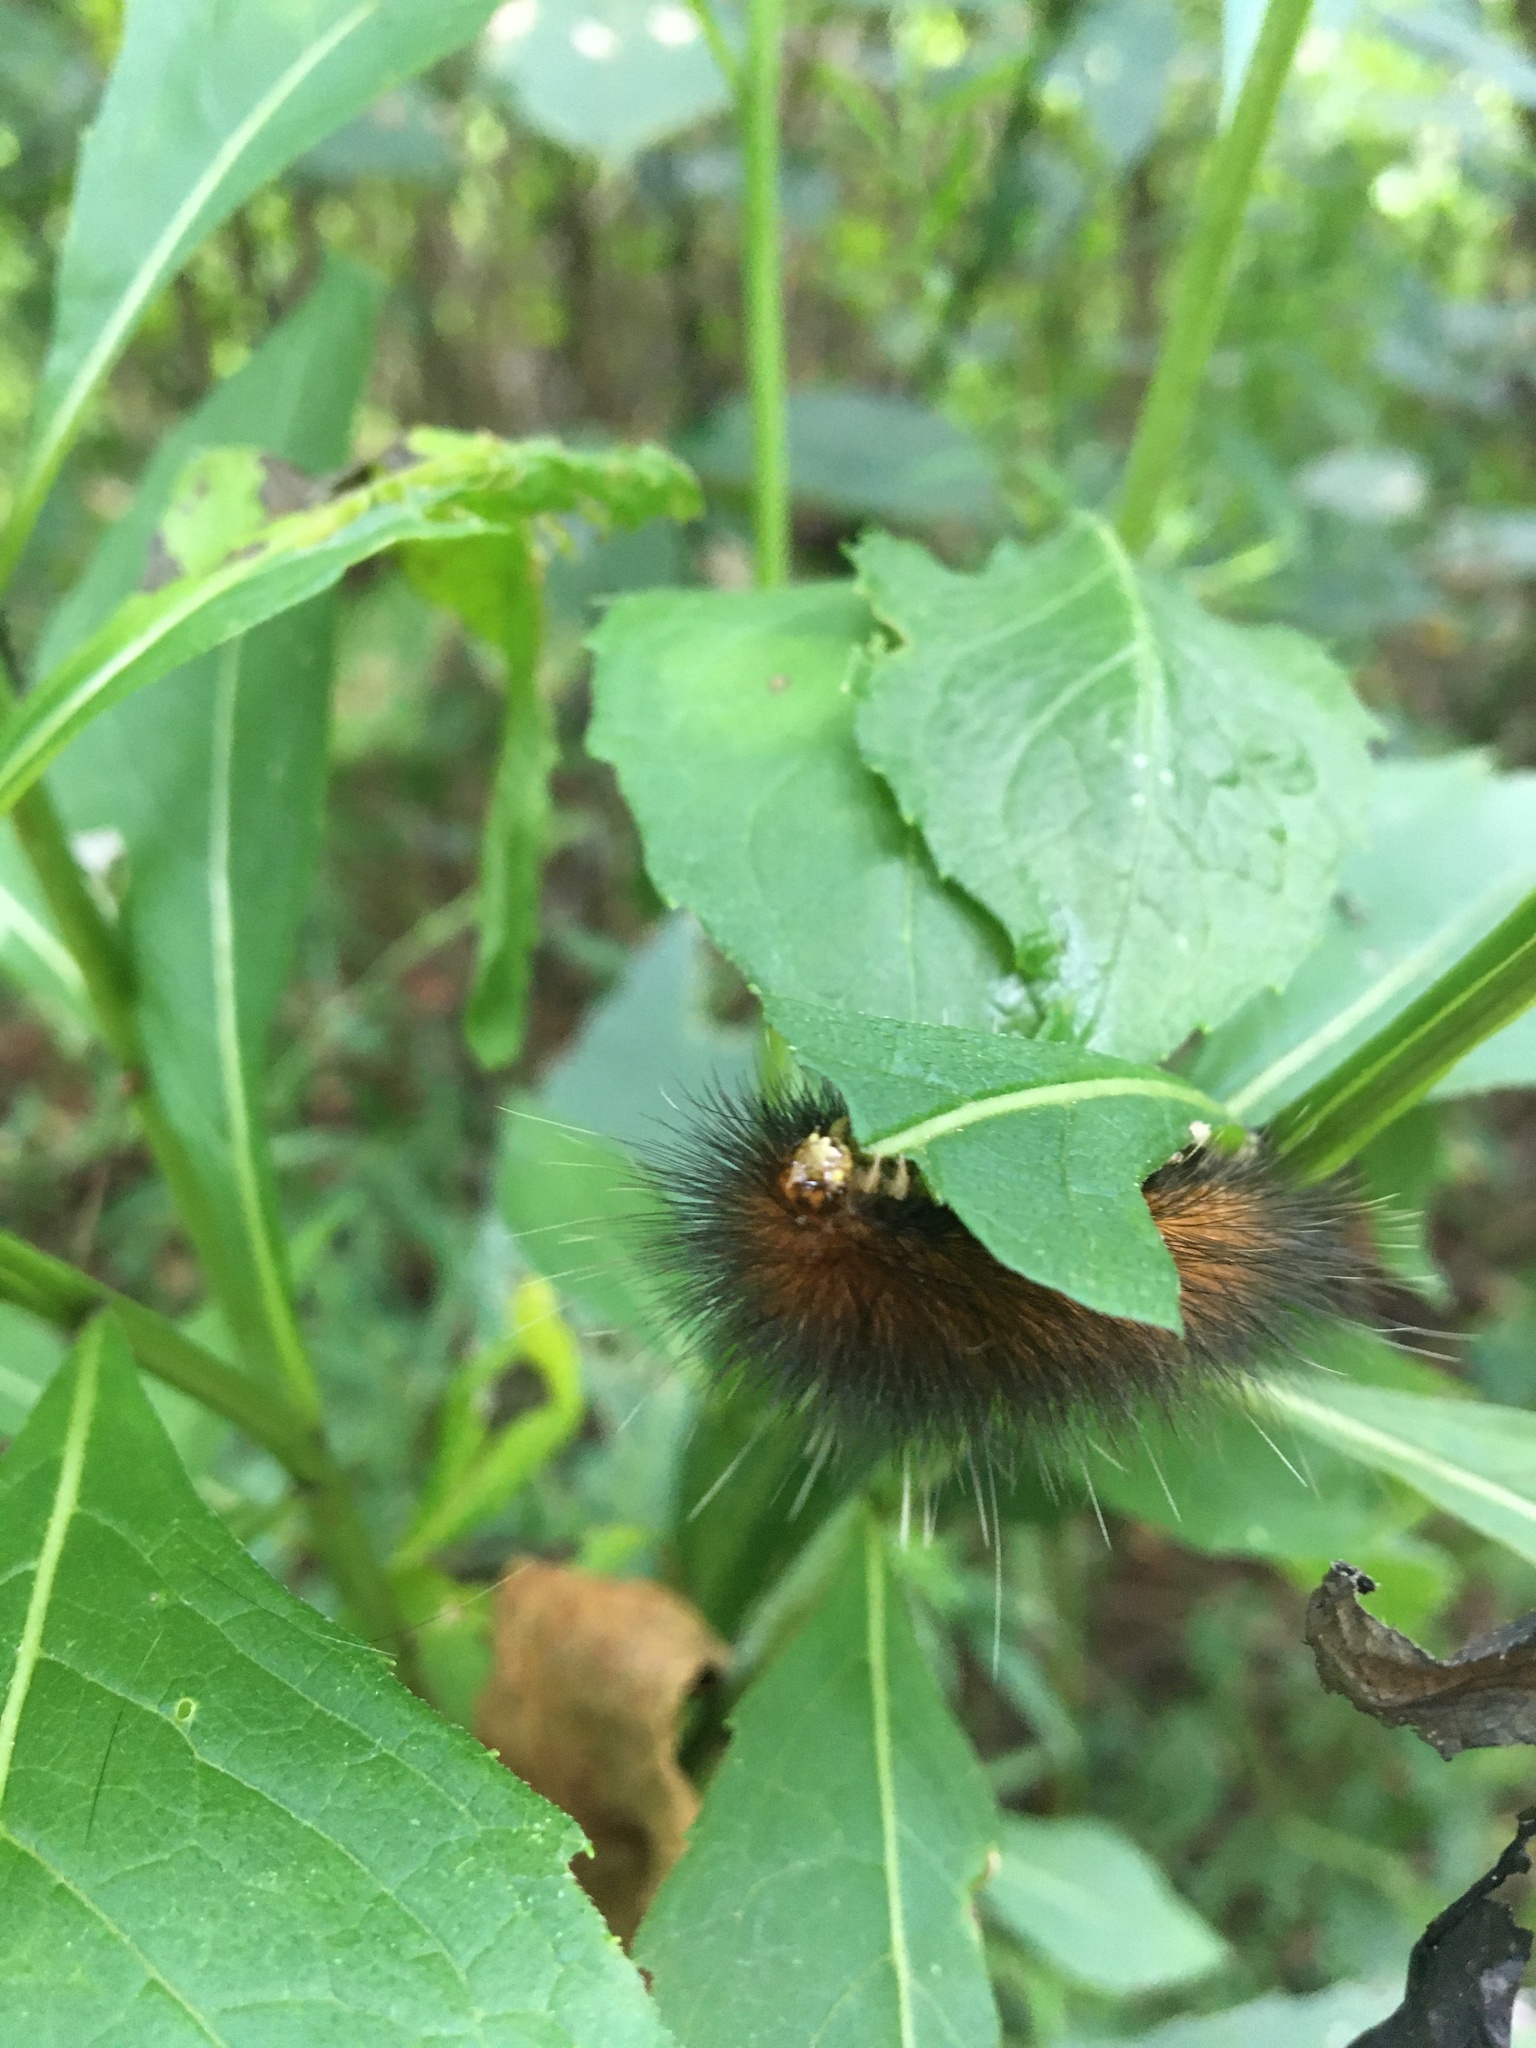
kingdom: Animalia
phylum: Arthropoda
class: Insecta
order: Lepidoptera
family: Erebidae
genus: Spilosoma
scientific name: Spilosoma virginica
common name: Virginia tiger moth
